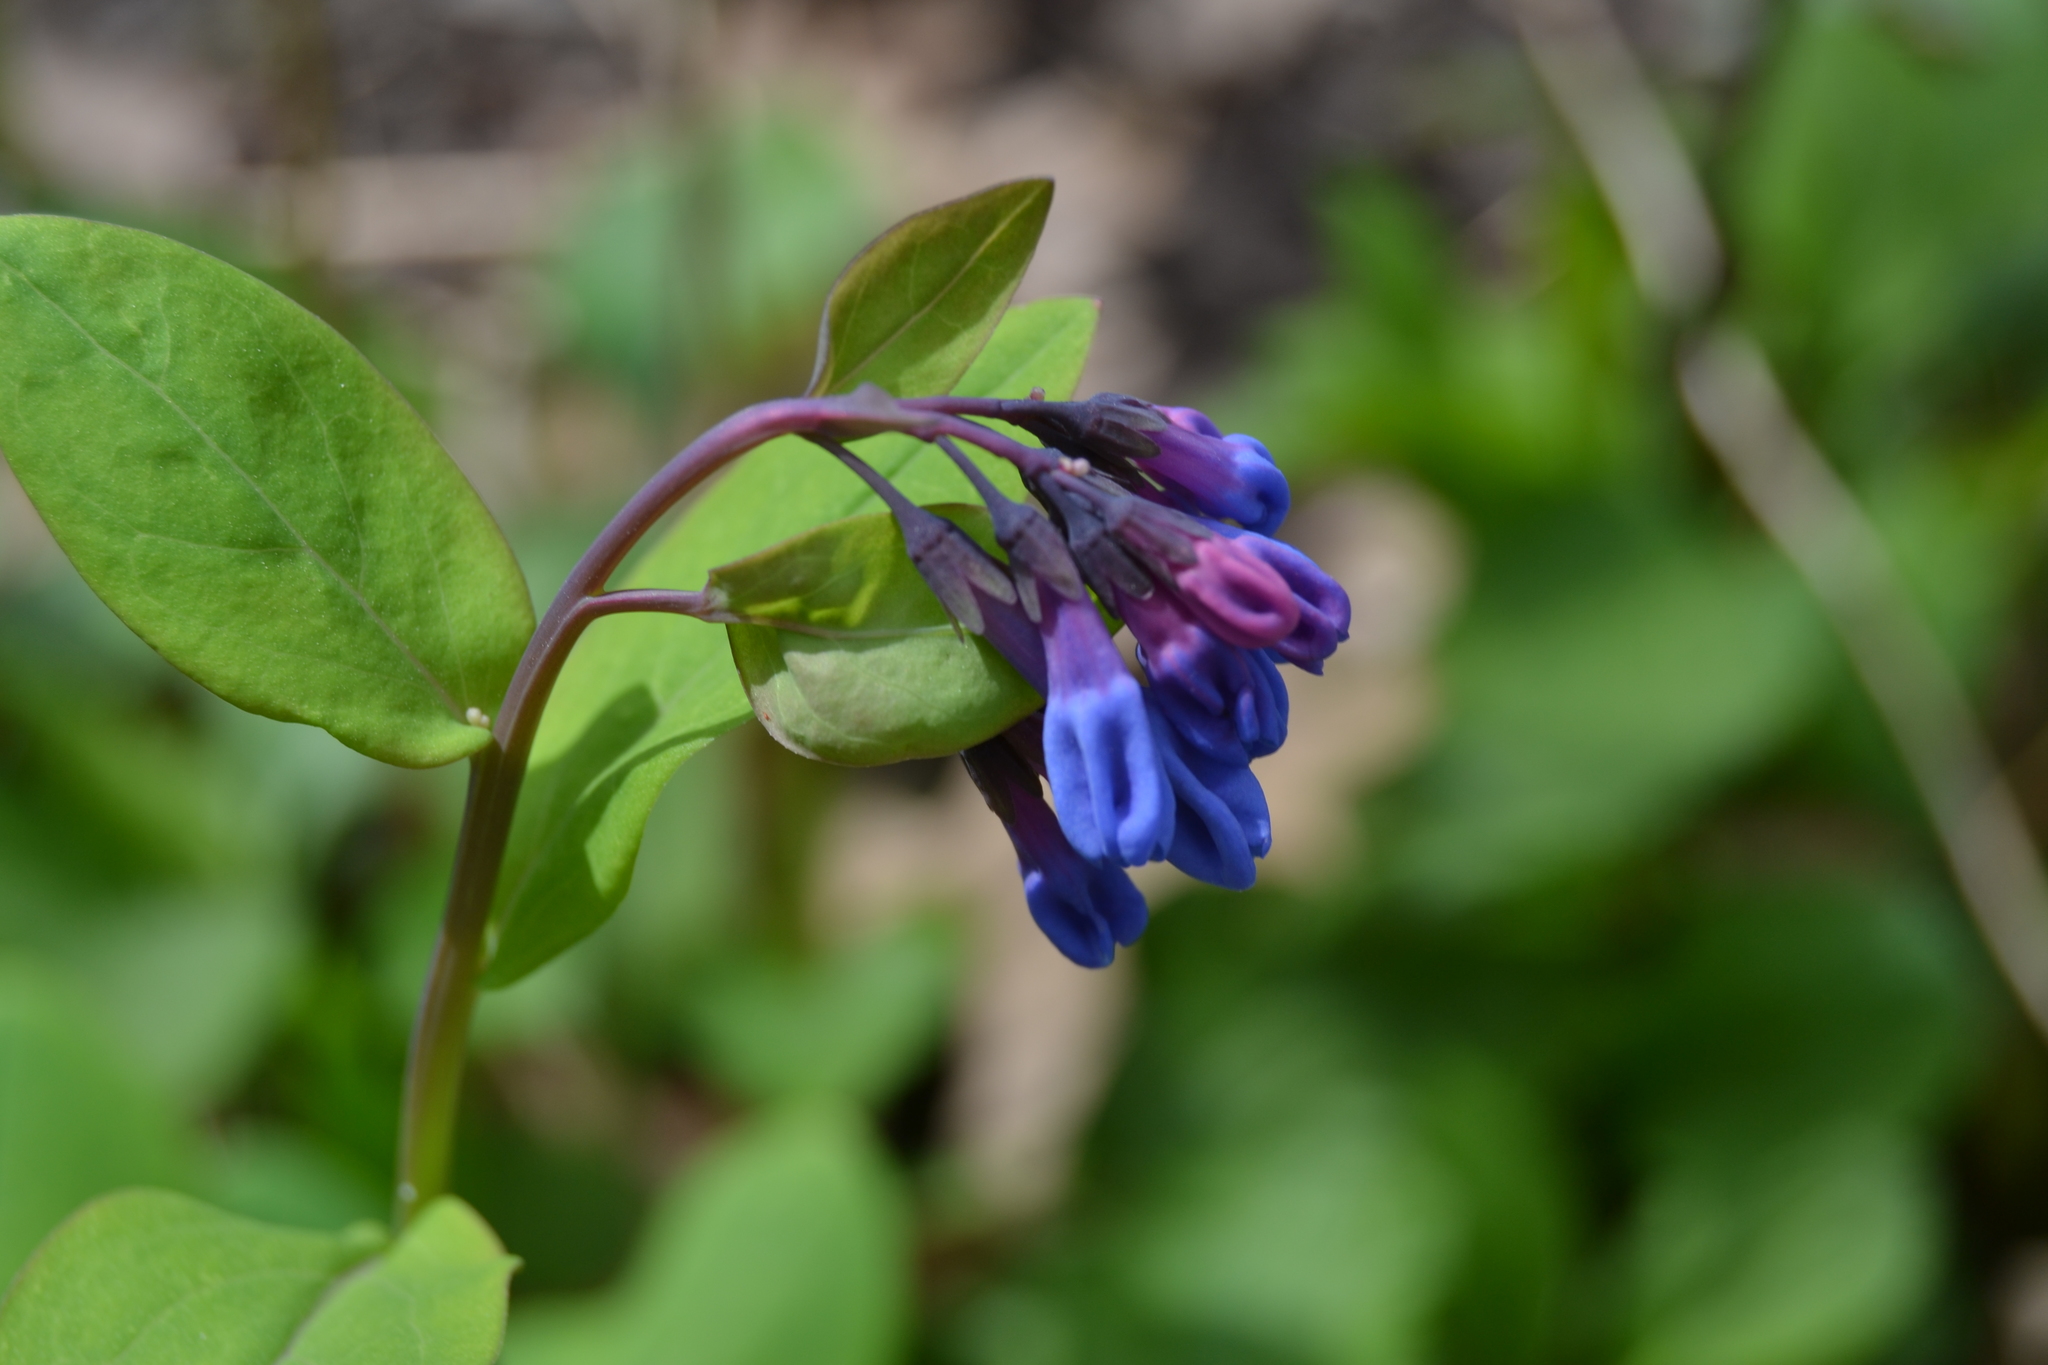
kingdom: Plantae
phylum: Tracheophyta
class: Magnoliopsida
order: Boraginales
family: Boraginaceae
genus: Mertensia
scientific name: Mertensia virginica
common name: Virginia bluebells
